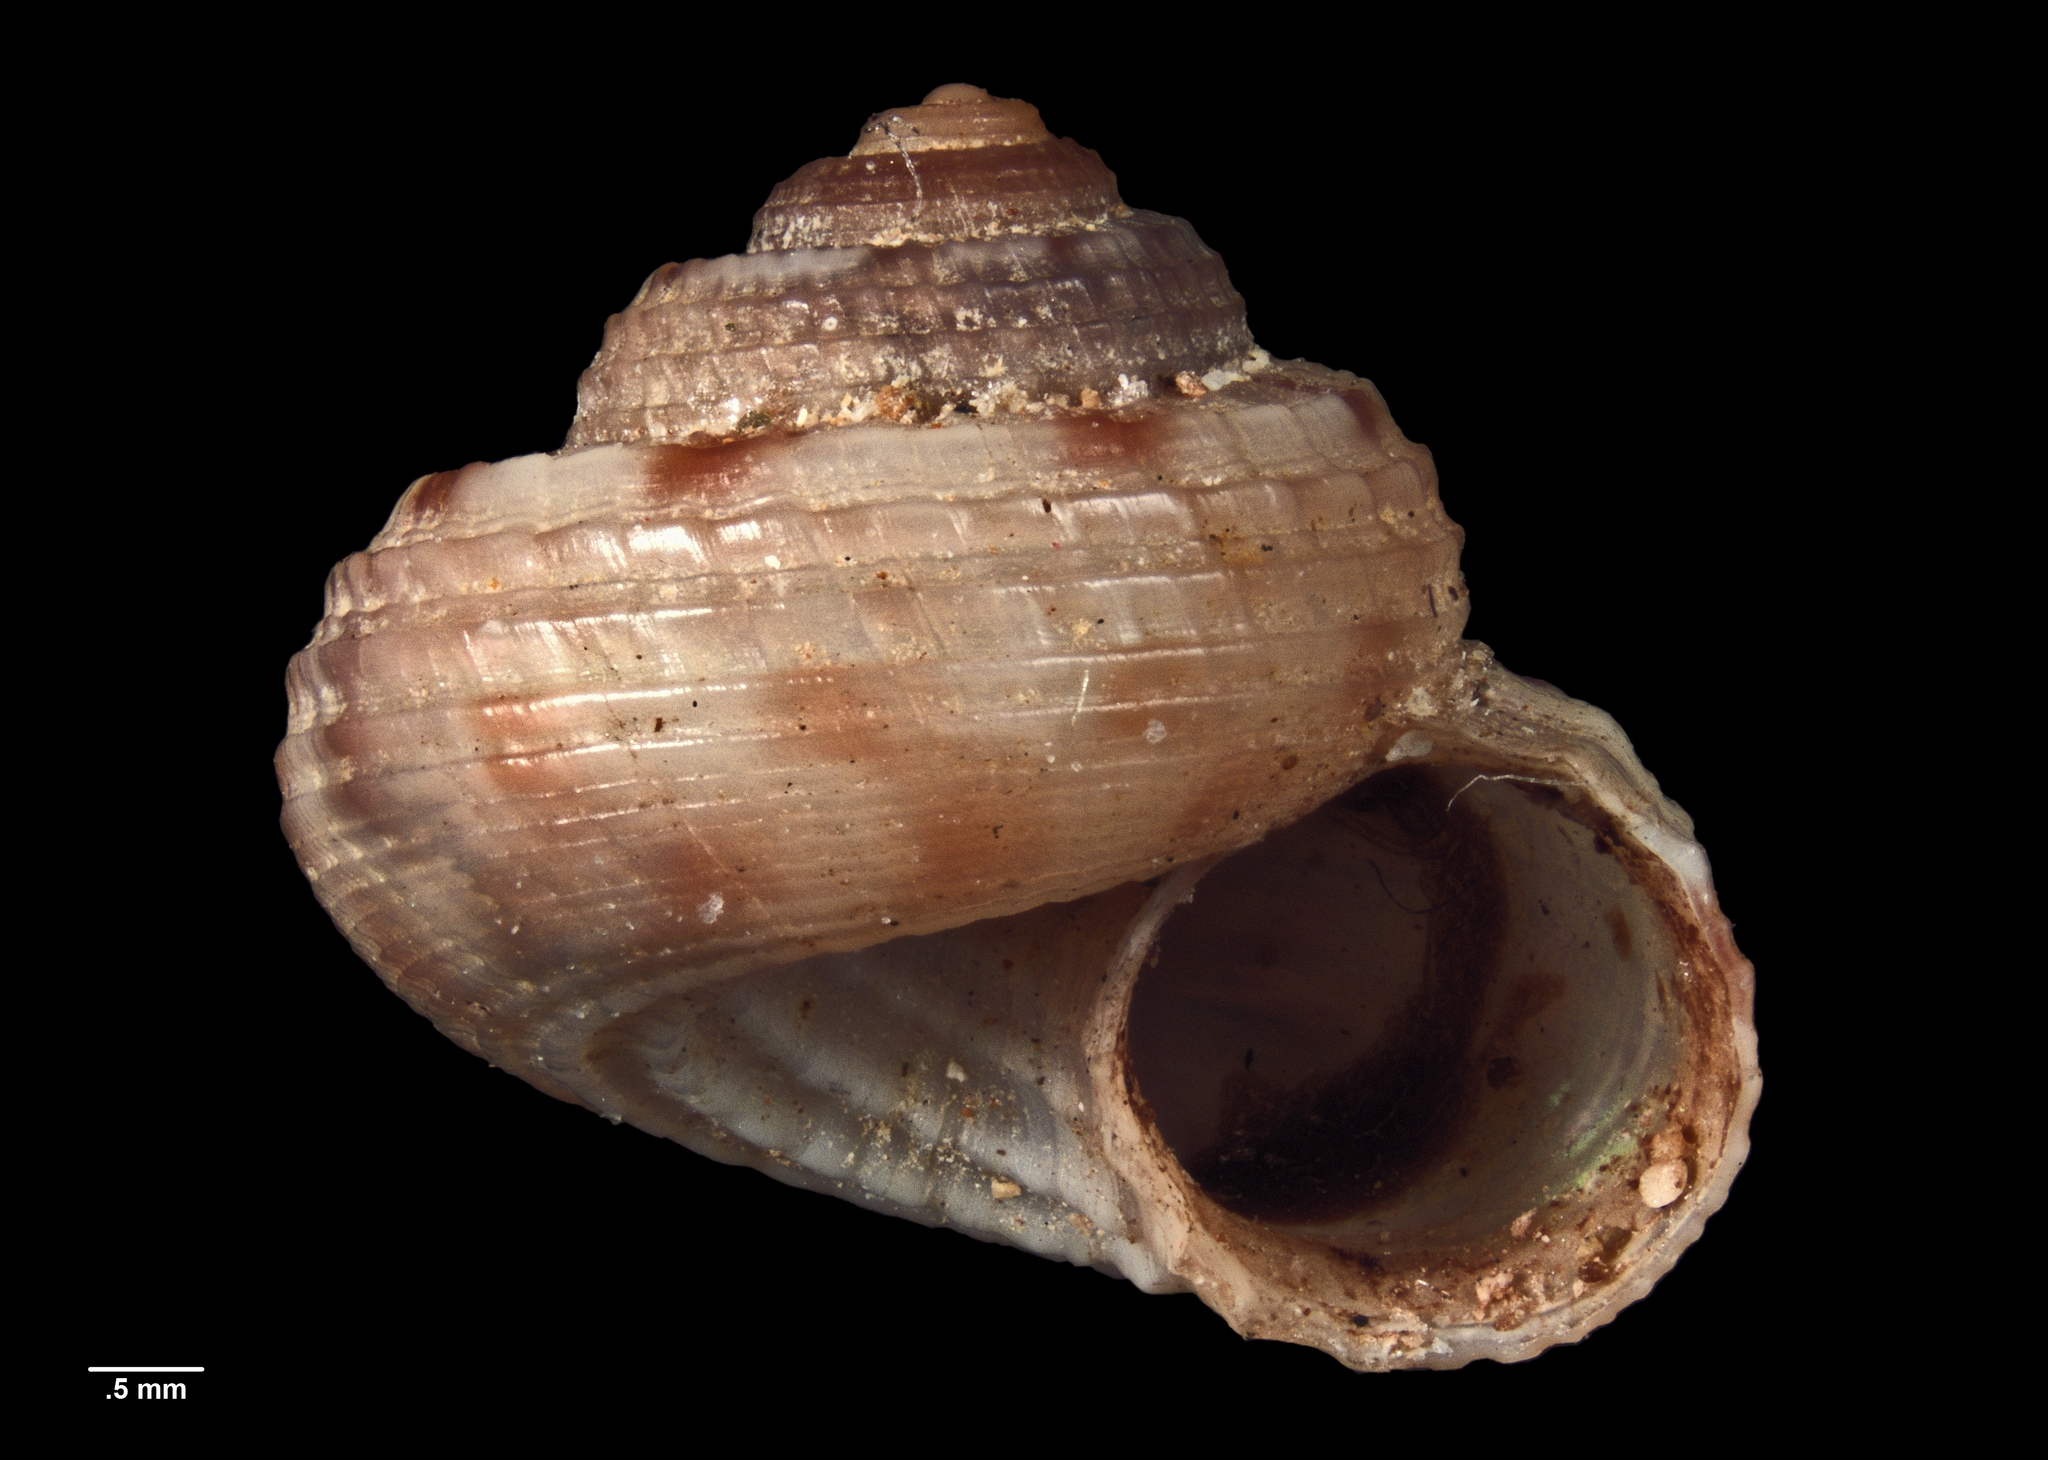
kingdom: Animalia
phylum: Mollusca
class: Gastropoda
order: Trochida
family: Solariellidae
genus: Spectamen
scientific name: Spectamen tryphenense
